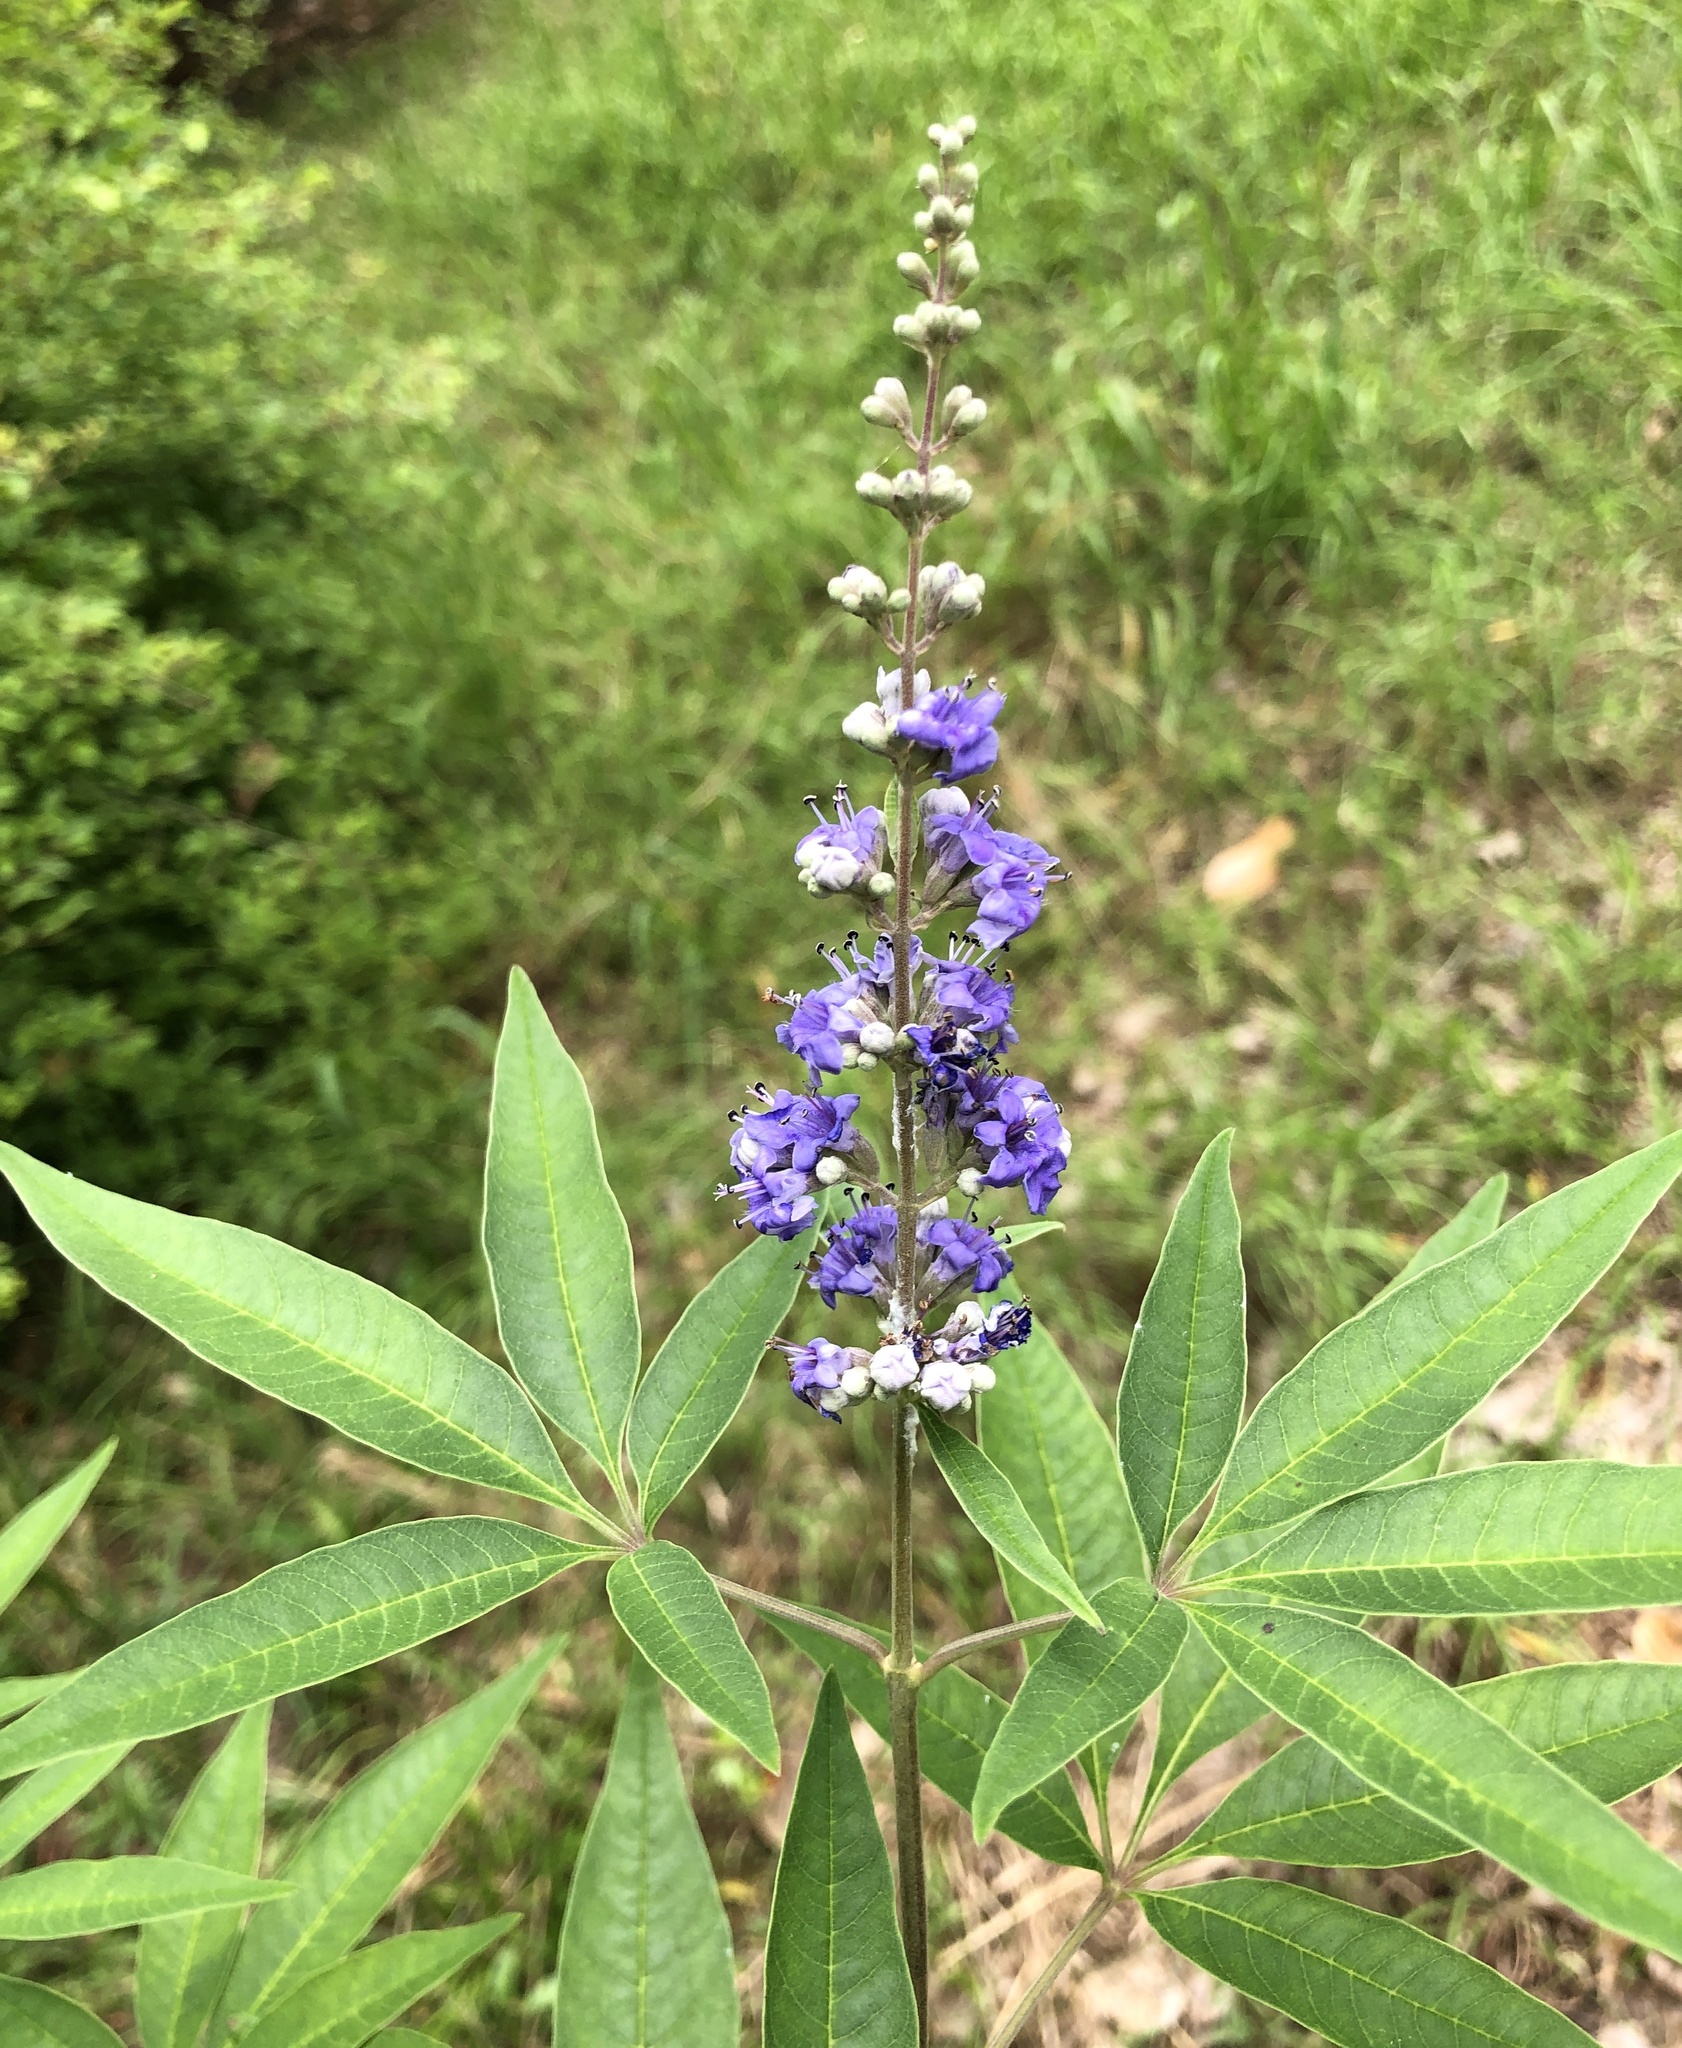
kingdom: Plantae
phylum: Tracheophyta
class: Magnoliopsida
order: Lamiales
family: Lamiaceae
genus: Vitex
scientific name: Vitex agnus-castus
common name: Chasteberry
